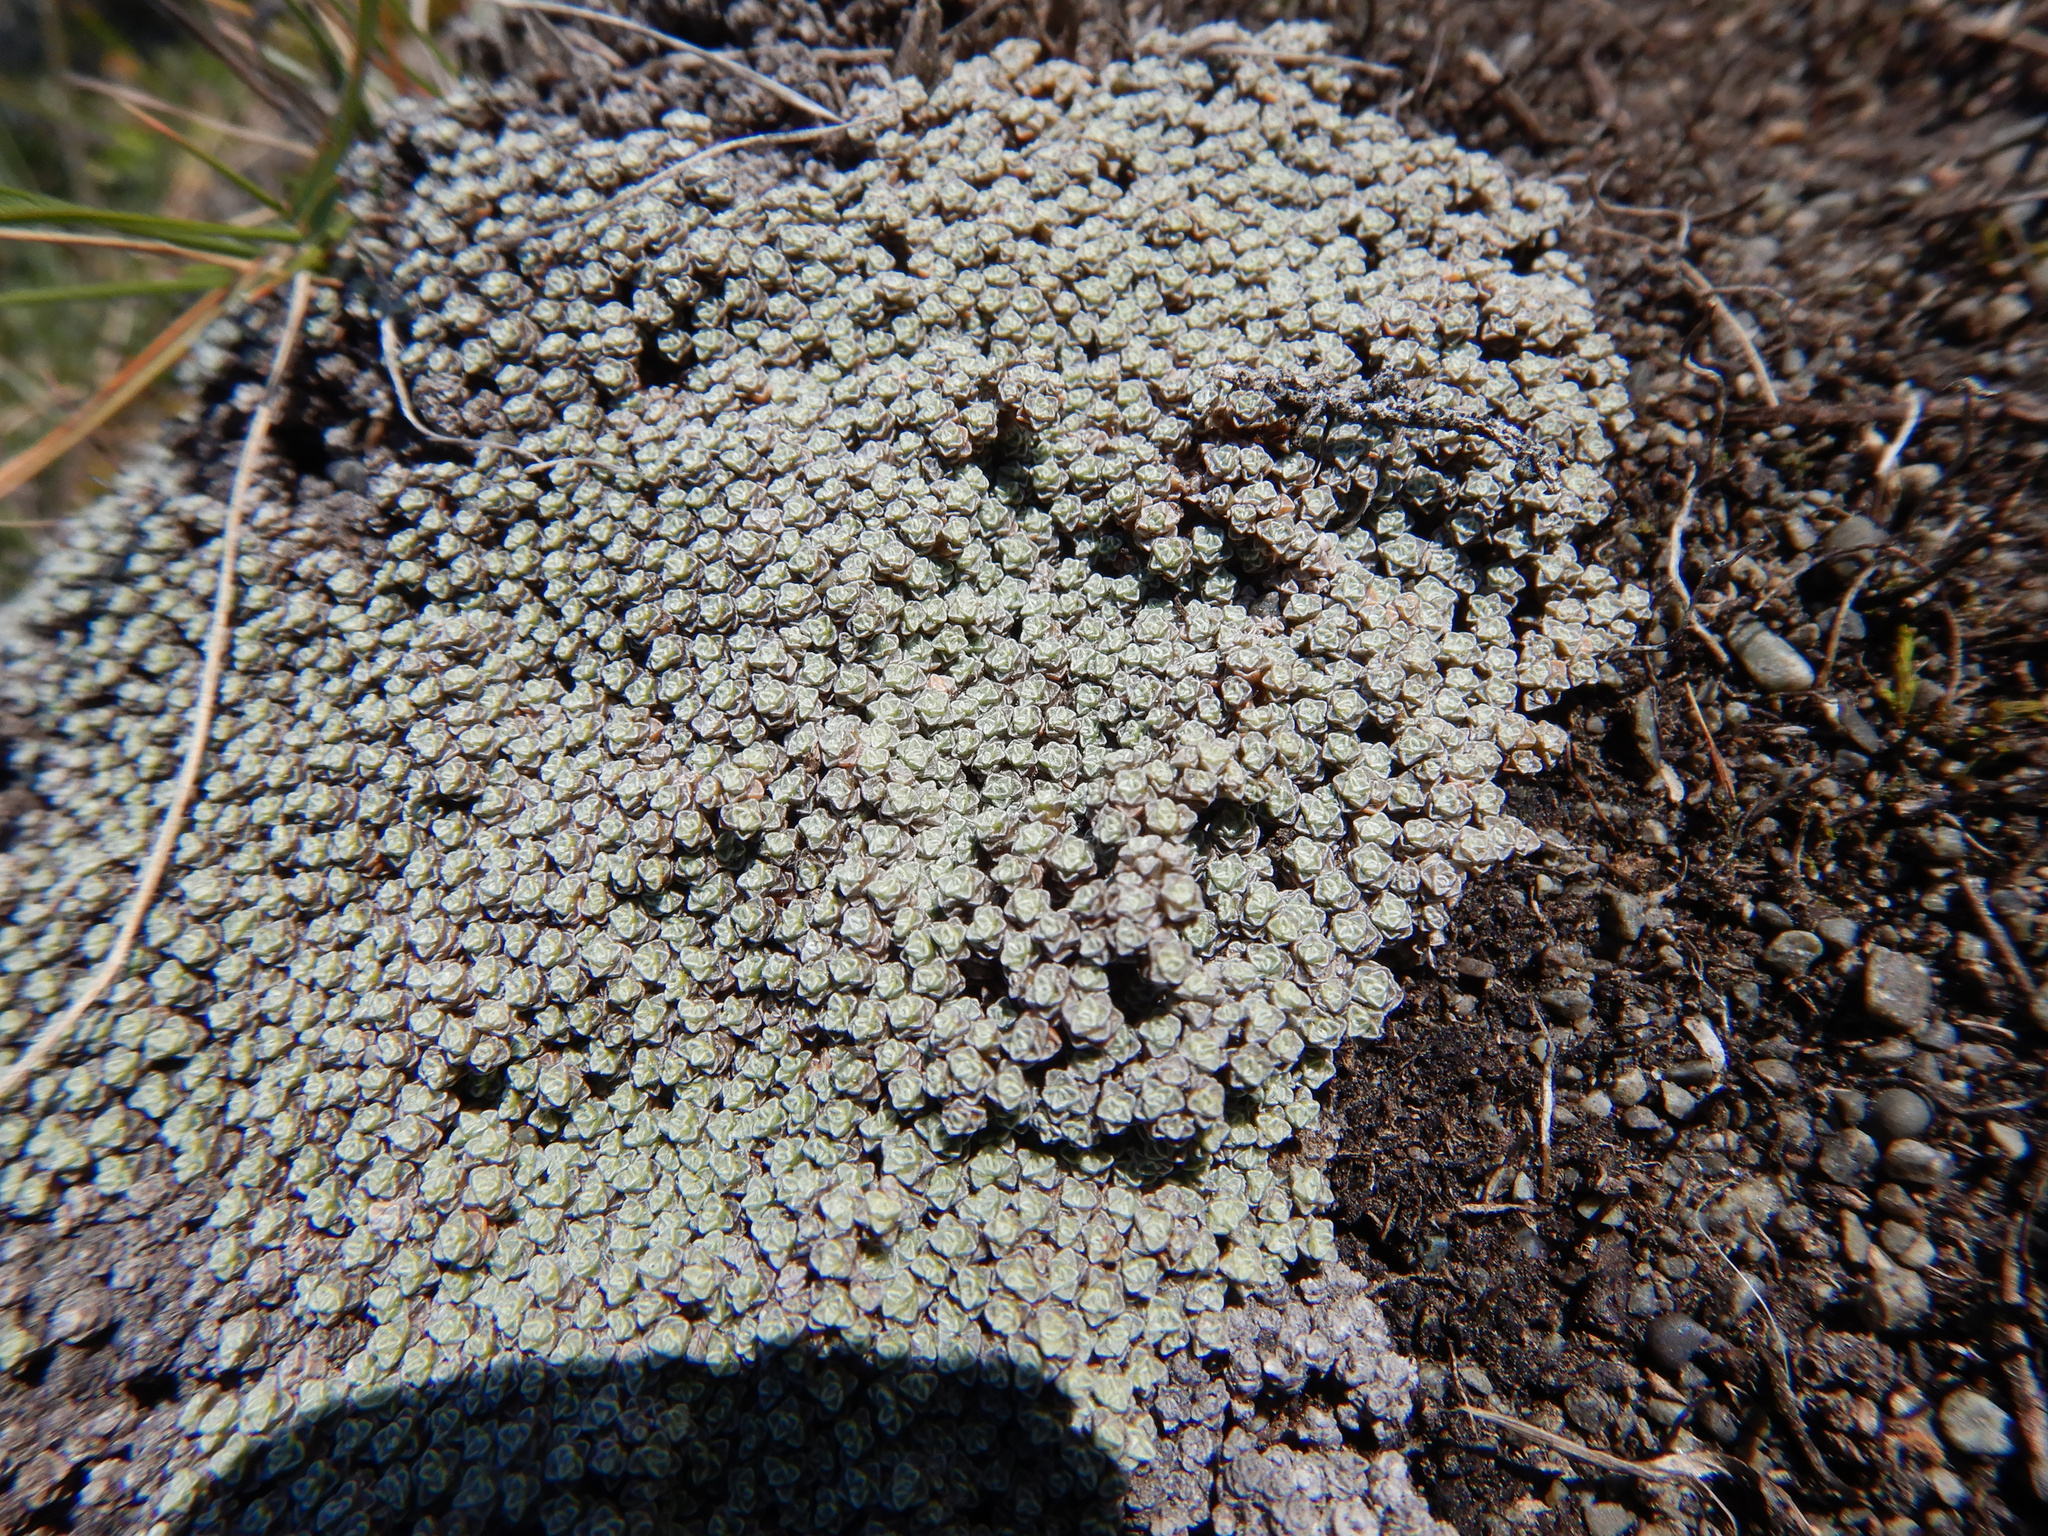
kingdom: Plantae
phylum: Tracheophyta
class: Magnoliopsida
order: Asterales
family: Asteraceae
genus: Raoulia
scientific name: Raoulia australis
